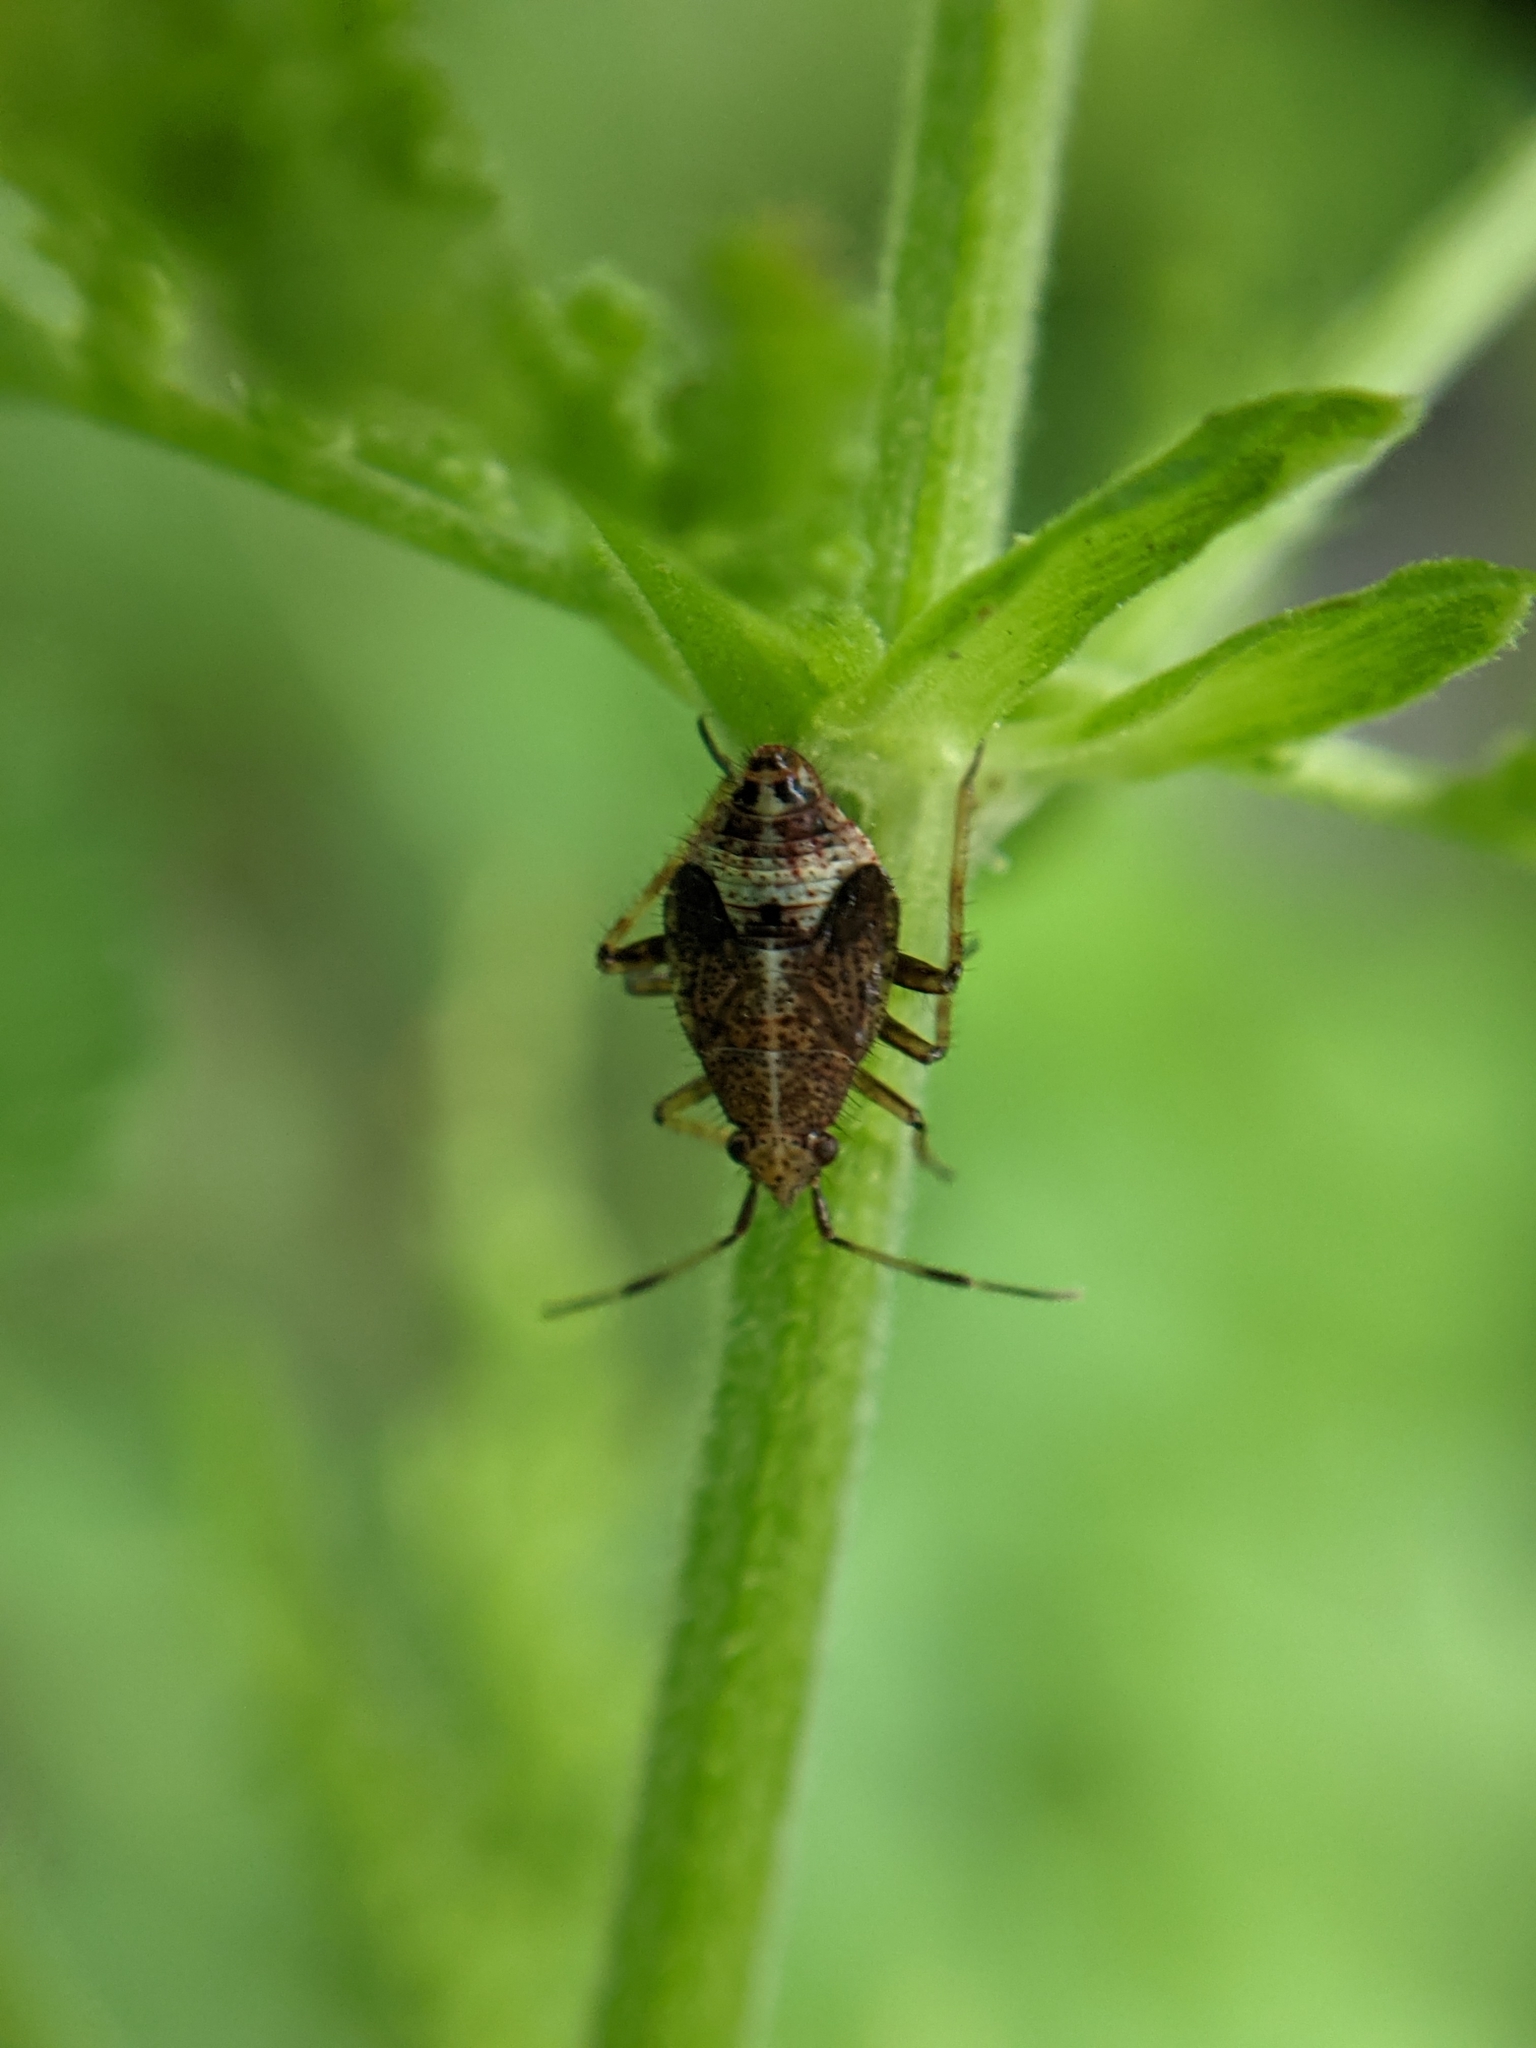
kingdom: Animalia
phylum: Arthropoda
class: Insecta
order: Hemiptera
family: Miridae
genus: Deraeocoris
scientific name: Deraeocoris flavilinea
